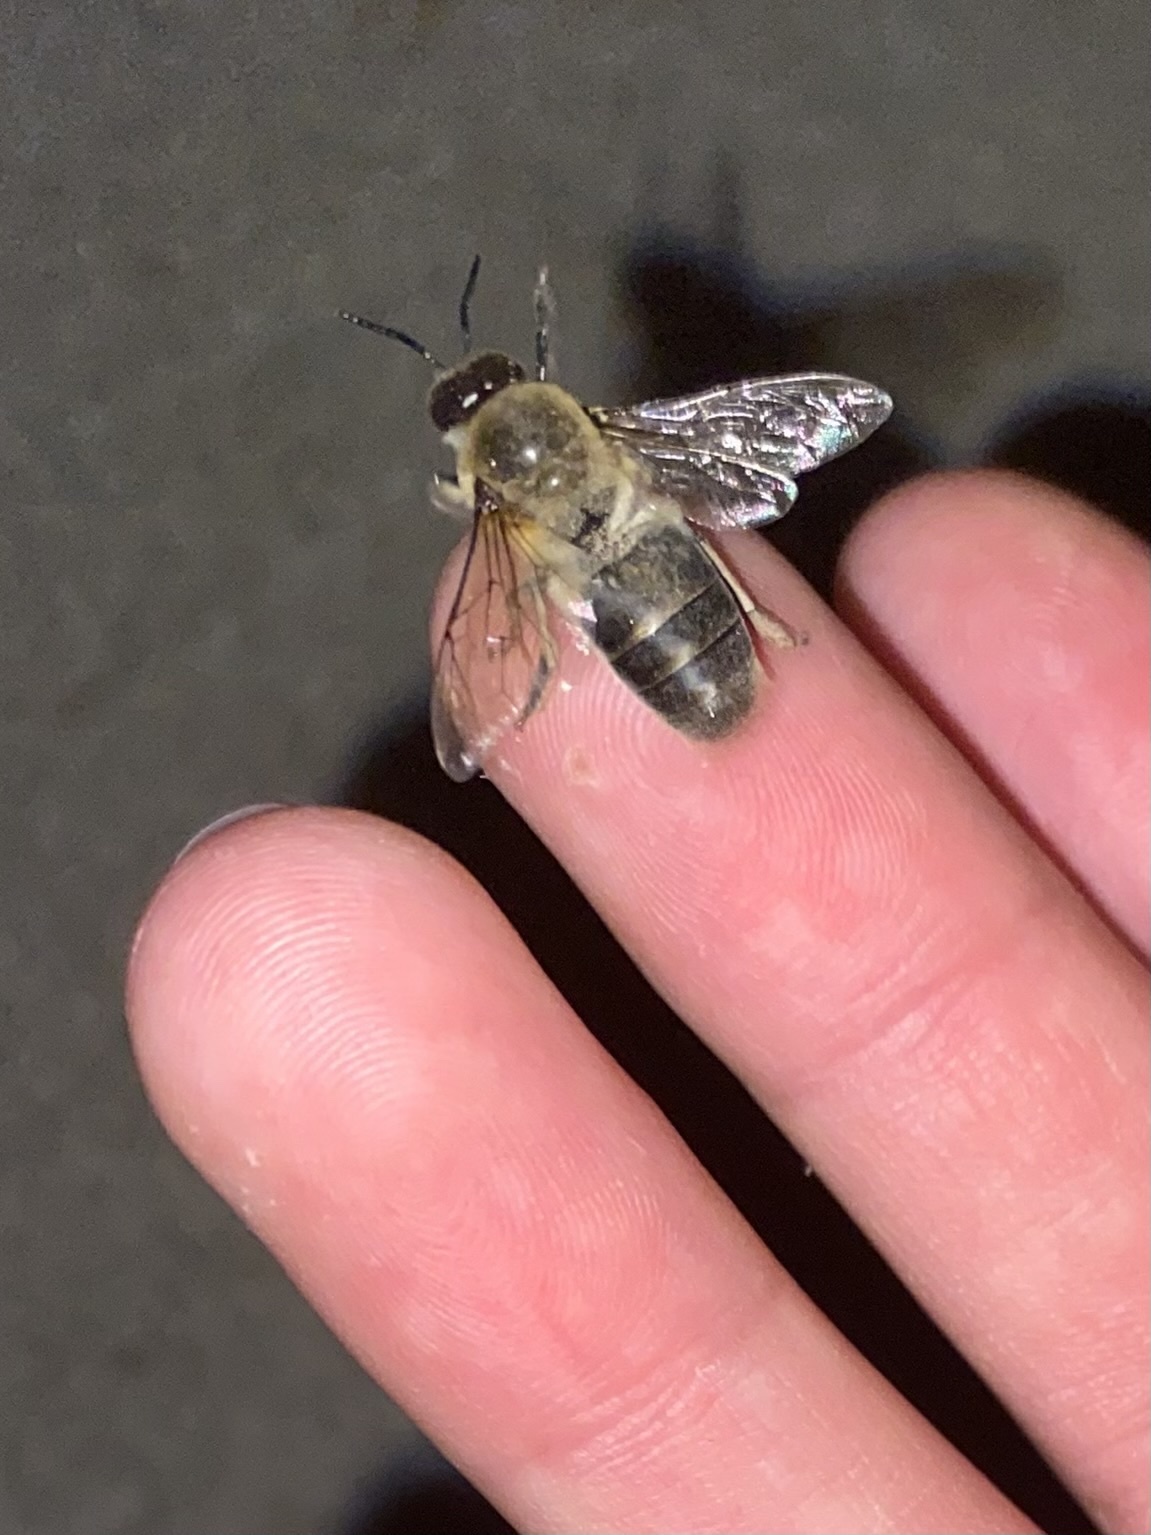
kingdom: Animalia
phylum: Arthropoda
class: Insecta
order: Hymenoptera
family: Apidae
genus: Apis
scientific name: Apis mellifera
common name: Honey bee
